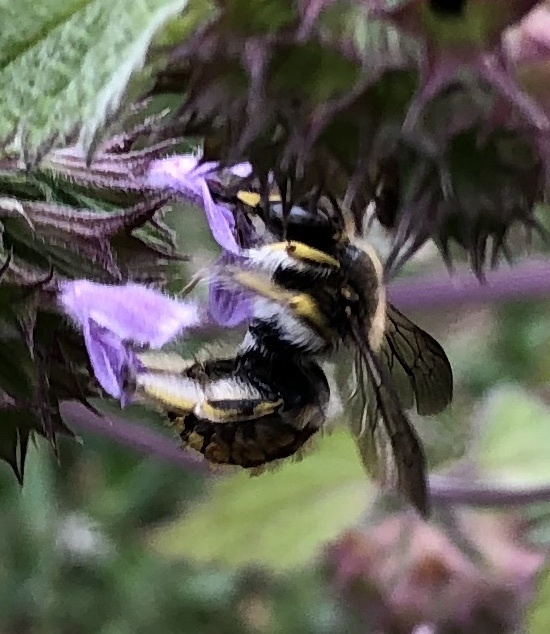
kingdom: Animalia
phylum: Arthropoda
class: Insecta
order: Hymenoptera
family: Megachilidae
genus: Anthidium
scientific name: Anthidium manicatum
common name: Wool carder bee
